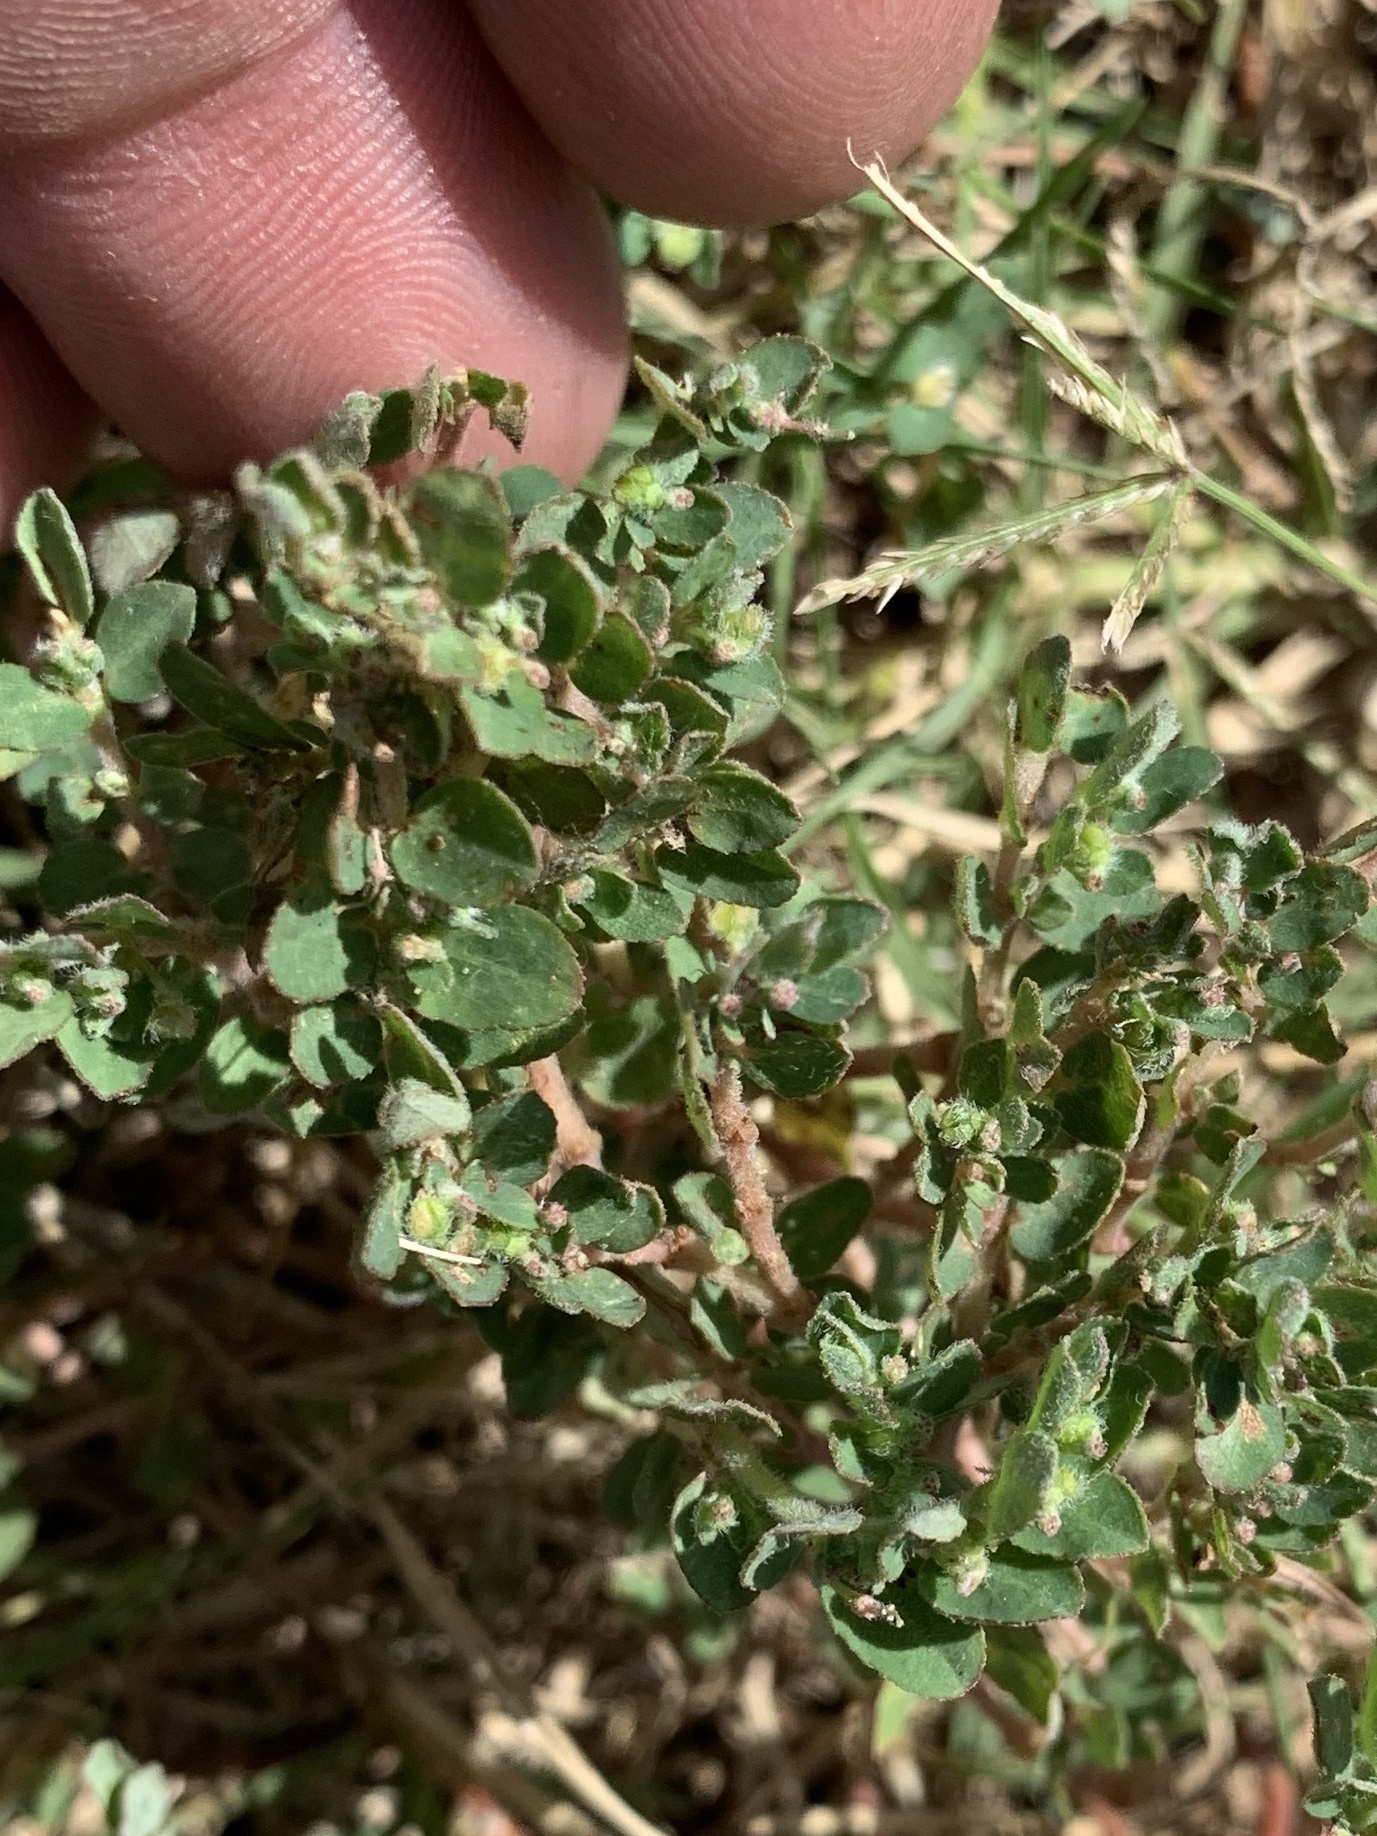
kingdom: Plantae
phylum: Tracheophyta
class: Magnoliopsida
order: Malpighiales
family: Euphorbiaceae
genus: Euphorbia
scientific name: Euphorbia prostrata
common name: Prostrate sandmat
